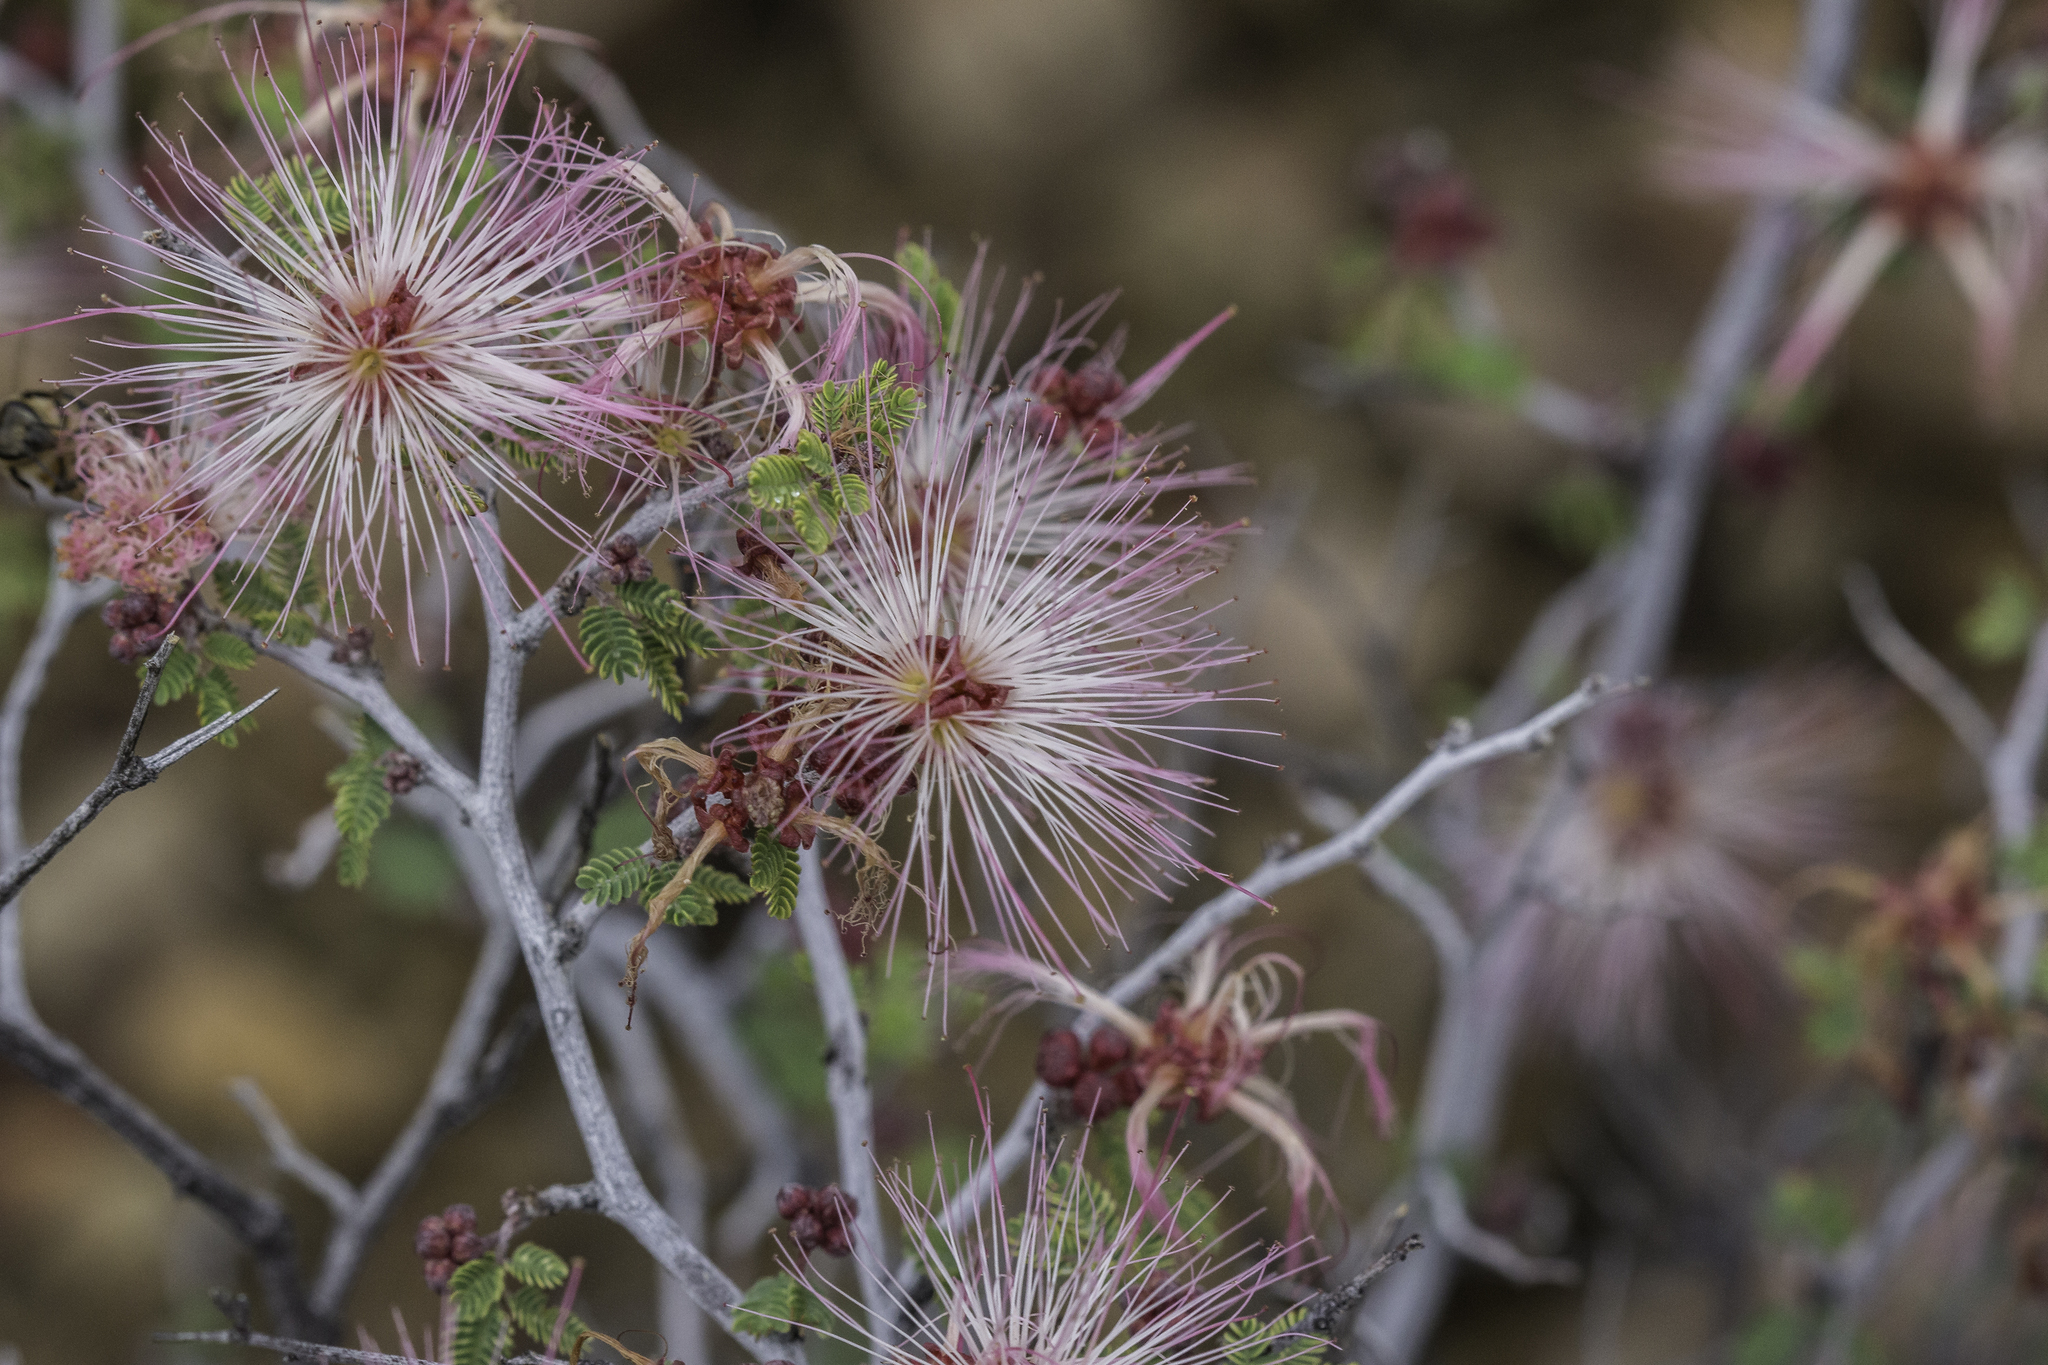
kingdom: Plantae
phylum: Tracheophyta
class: Magnoliopsida
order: Fabales
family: Fabaceae
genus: Calliandra
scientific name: Calliandra eriophylla
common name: Fairy-duster
